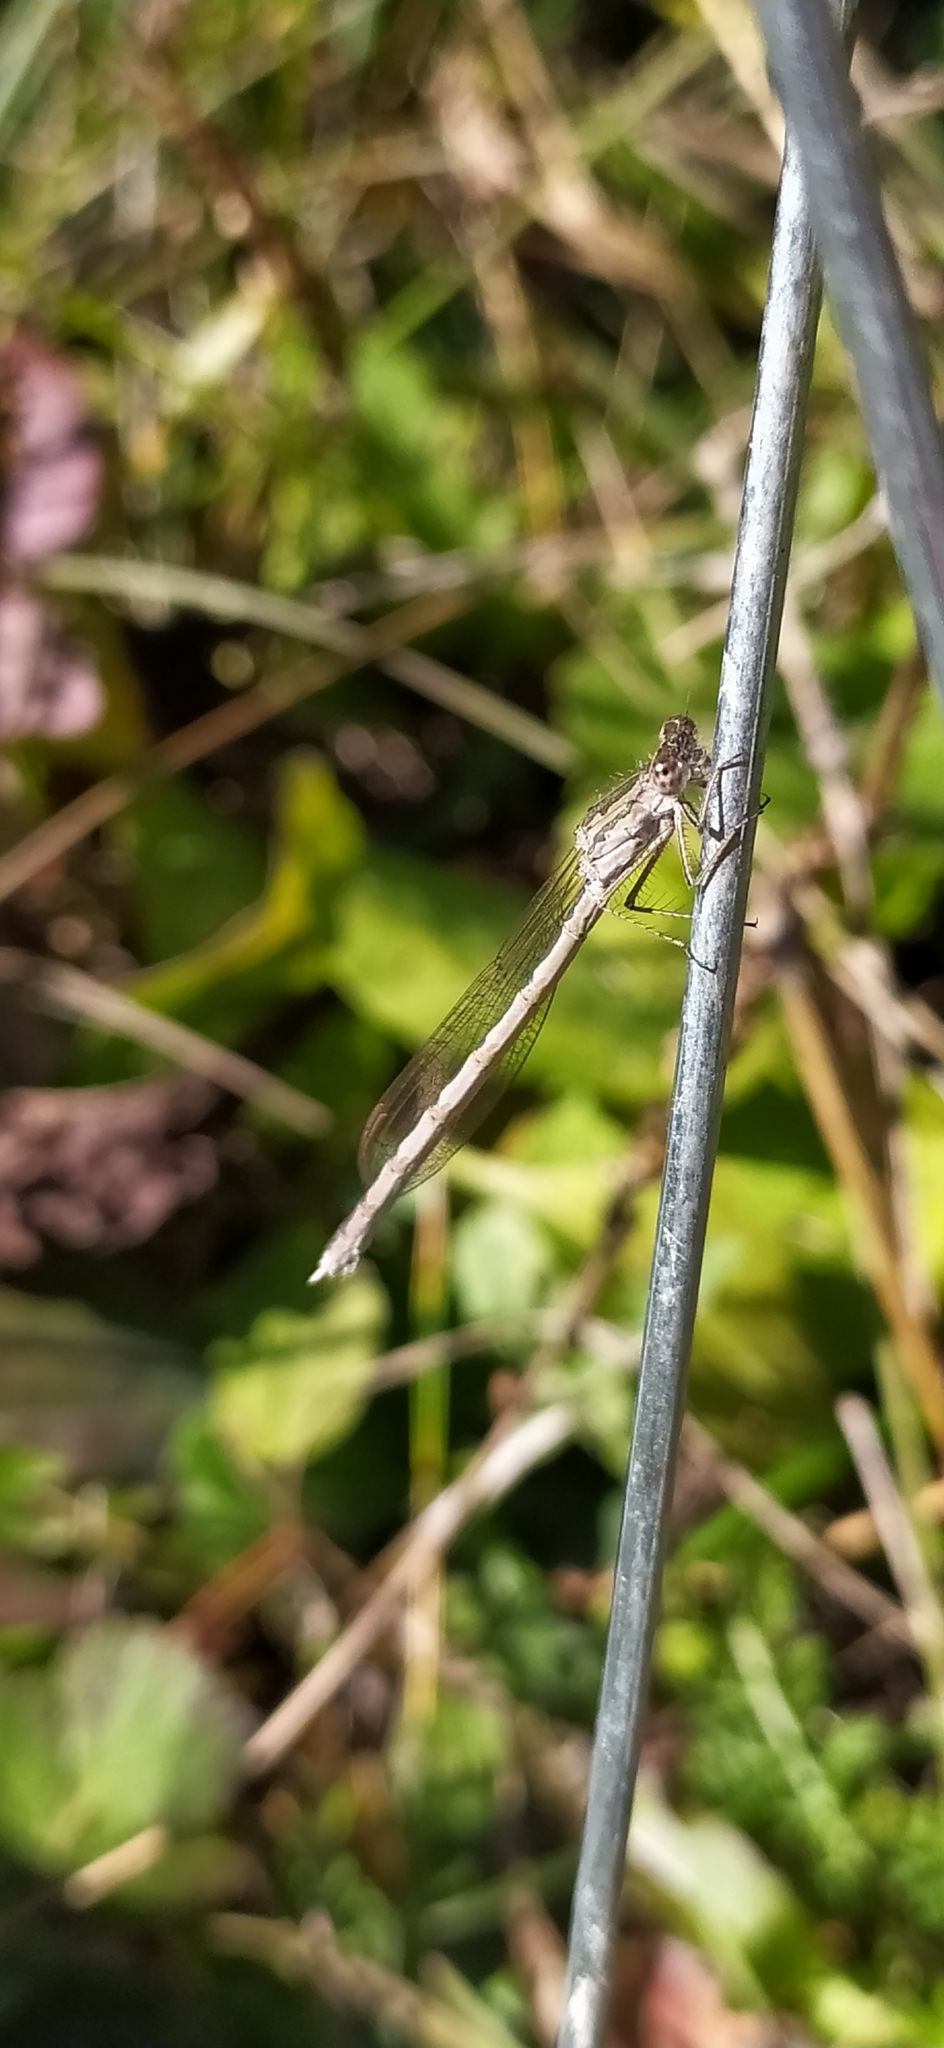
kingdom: Animalia
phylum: Arthropoda
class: Insecta
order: Odonata
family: Lestidae
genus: Sympecma
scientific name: Sympecma paedisca
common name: Siberian winter damsel
